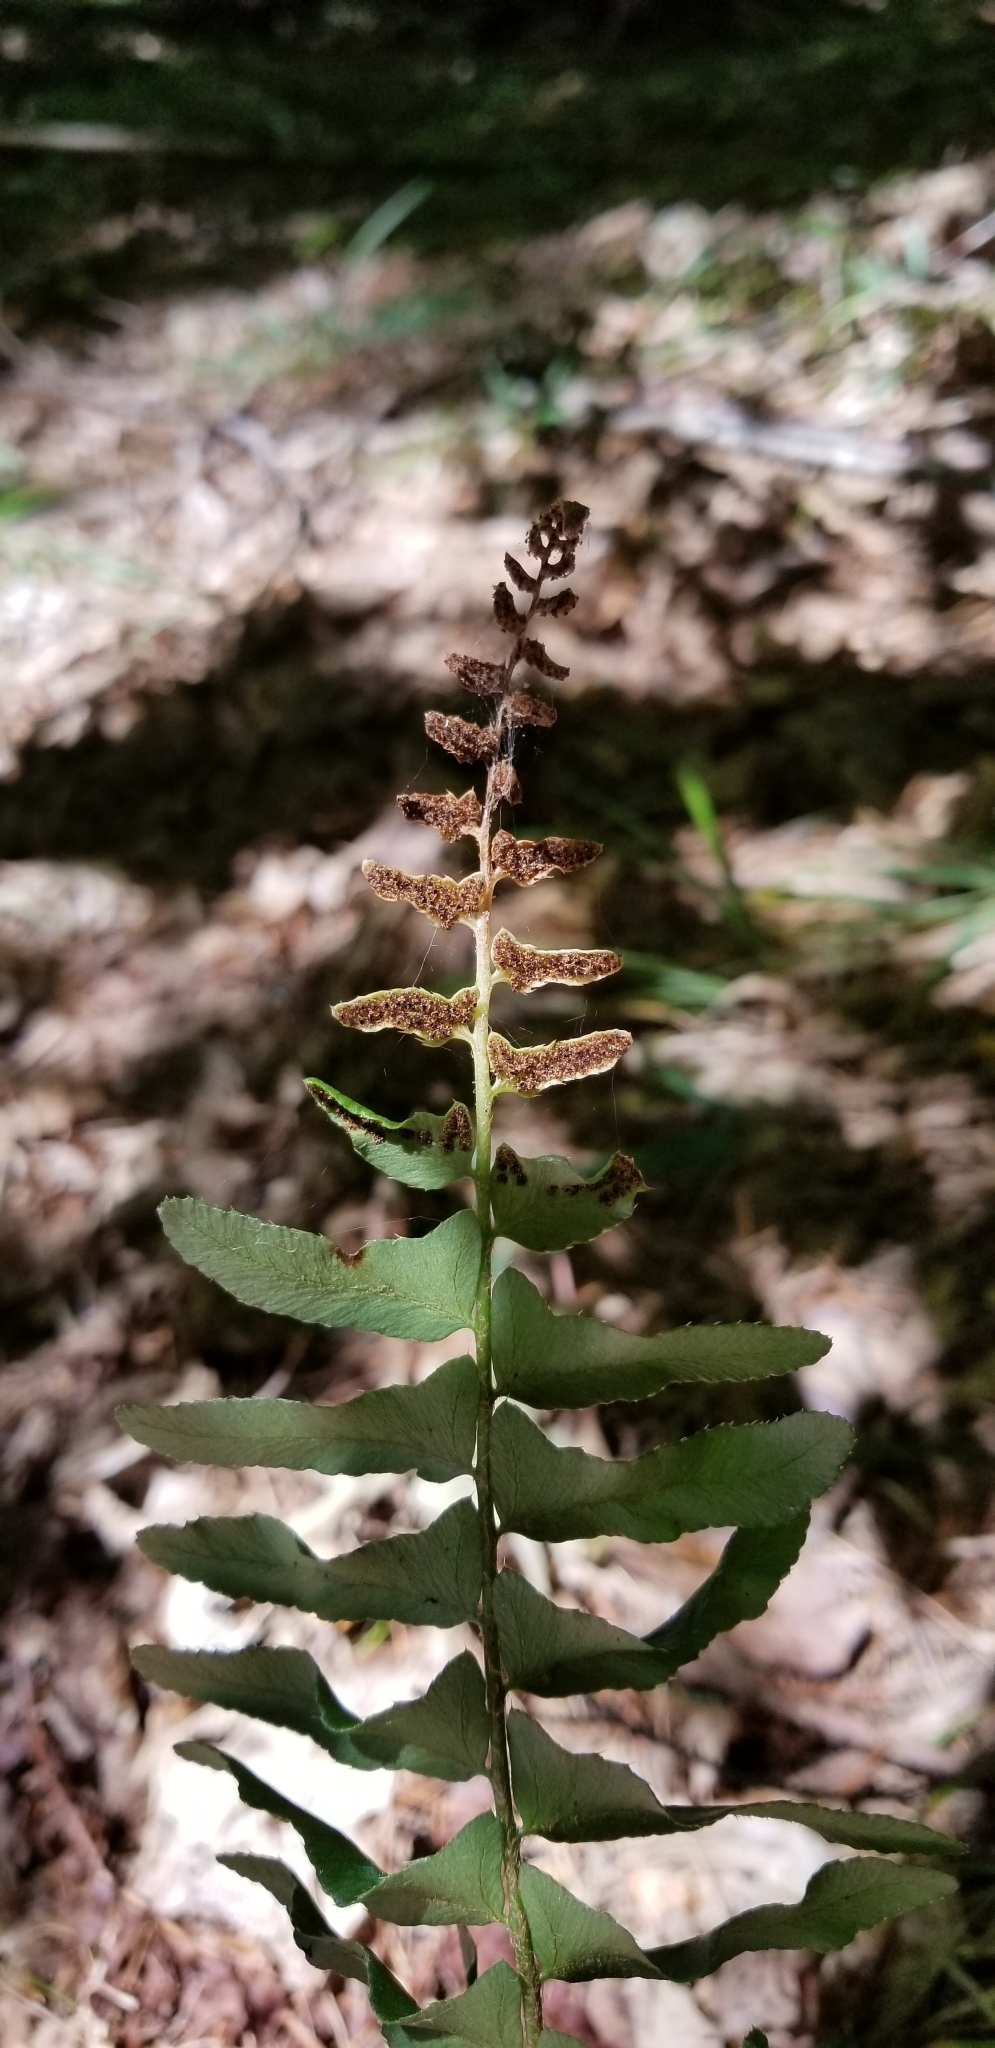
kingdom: Plantae
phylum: Tracheophyta
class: Polypodiopsida
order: Polypodiales
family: Dryopteridaceae
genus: Polystichum
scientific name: Polystichum acrostichoides
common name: Christmas fern
